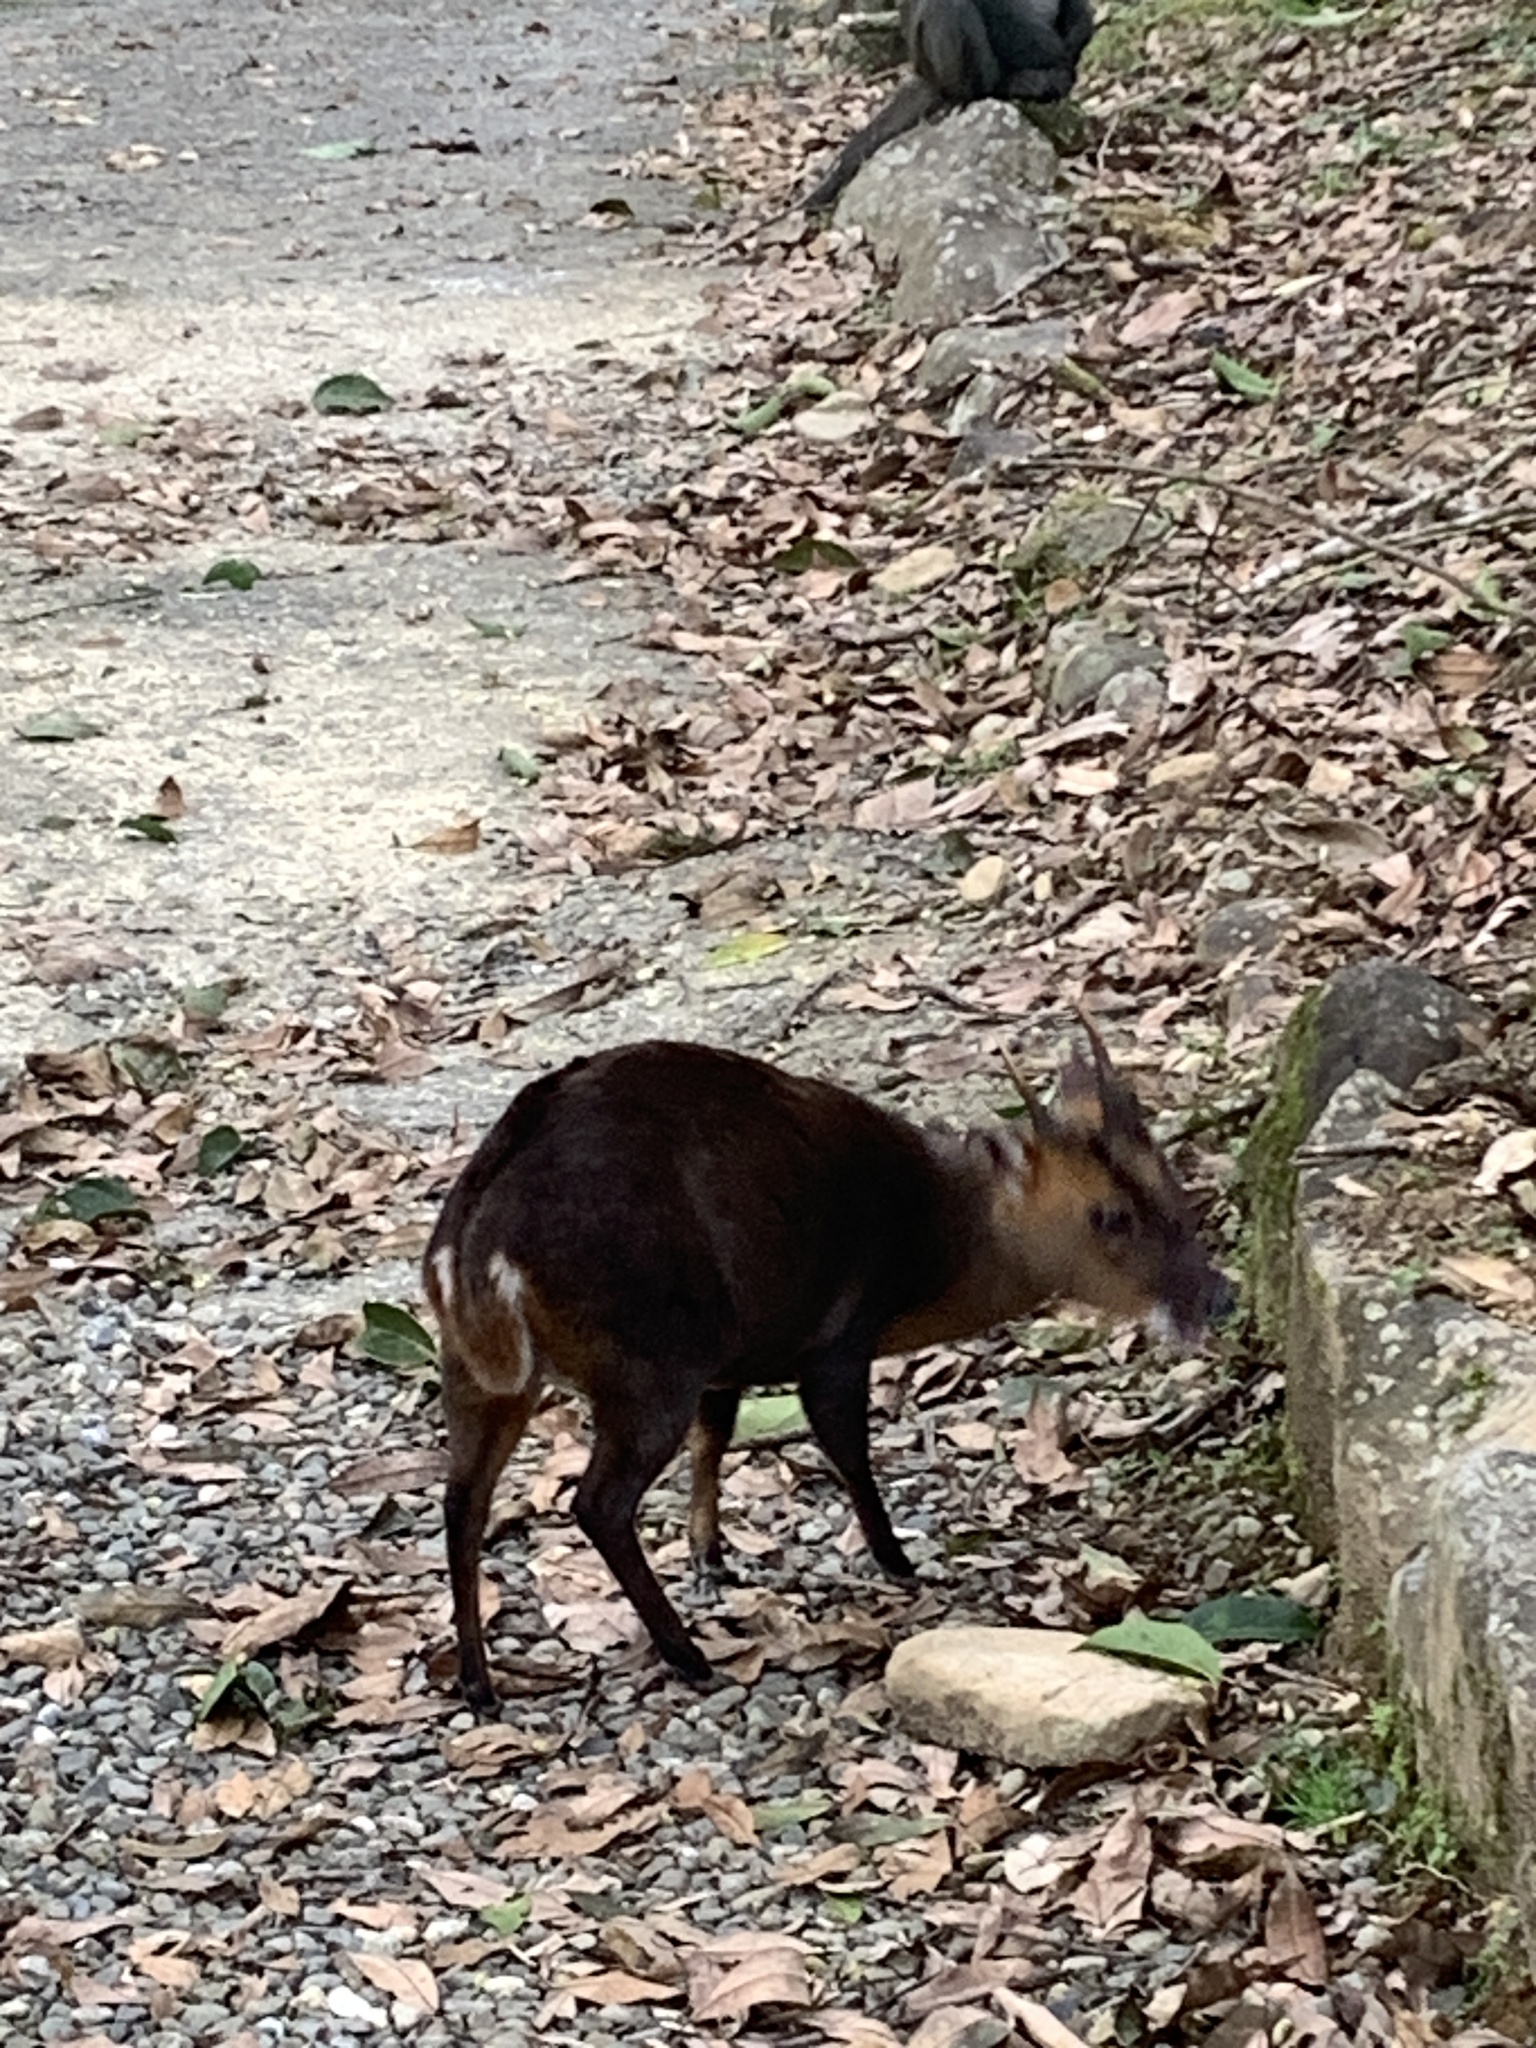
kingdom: Animalia
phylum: Chordata
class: Mammalia
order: Artiodactyla
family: Cervidae
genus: Muntiacus
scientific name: Muntiacus reevesi
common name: Reeves' muntjac
